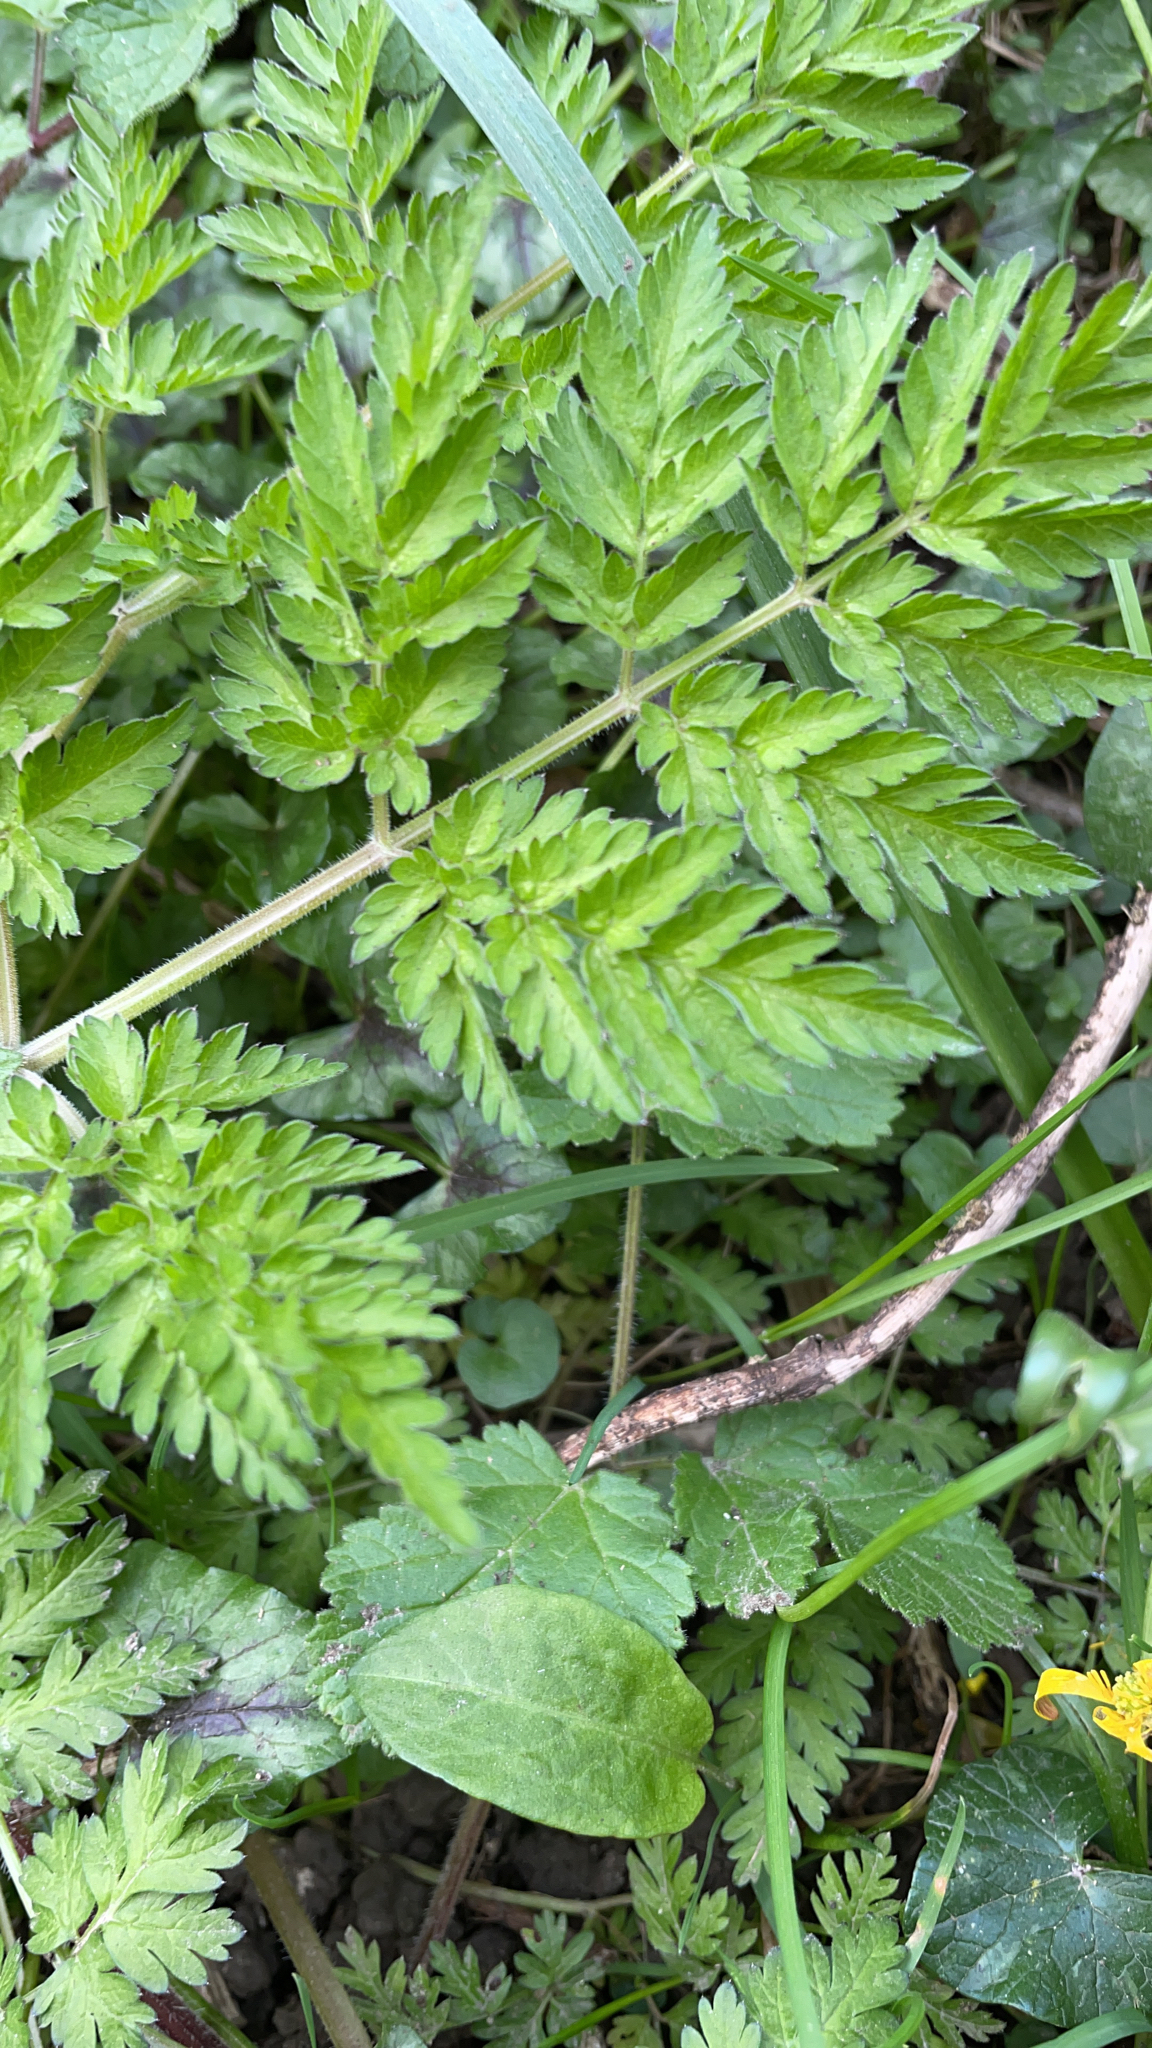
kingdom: Plantae
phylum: Tracheophyta
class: Magnoliopsida
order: Apiales
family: Apiaceae
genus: Anthriscus
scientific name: Anthriscus sylvestris
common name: Cow parsley
